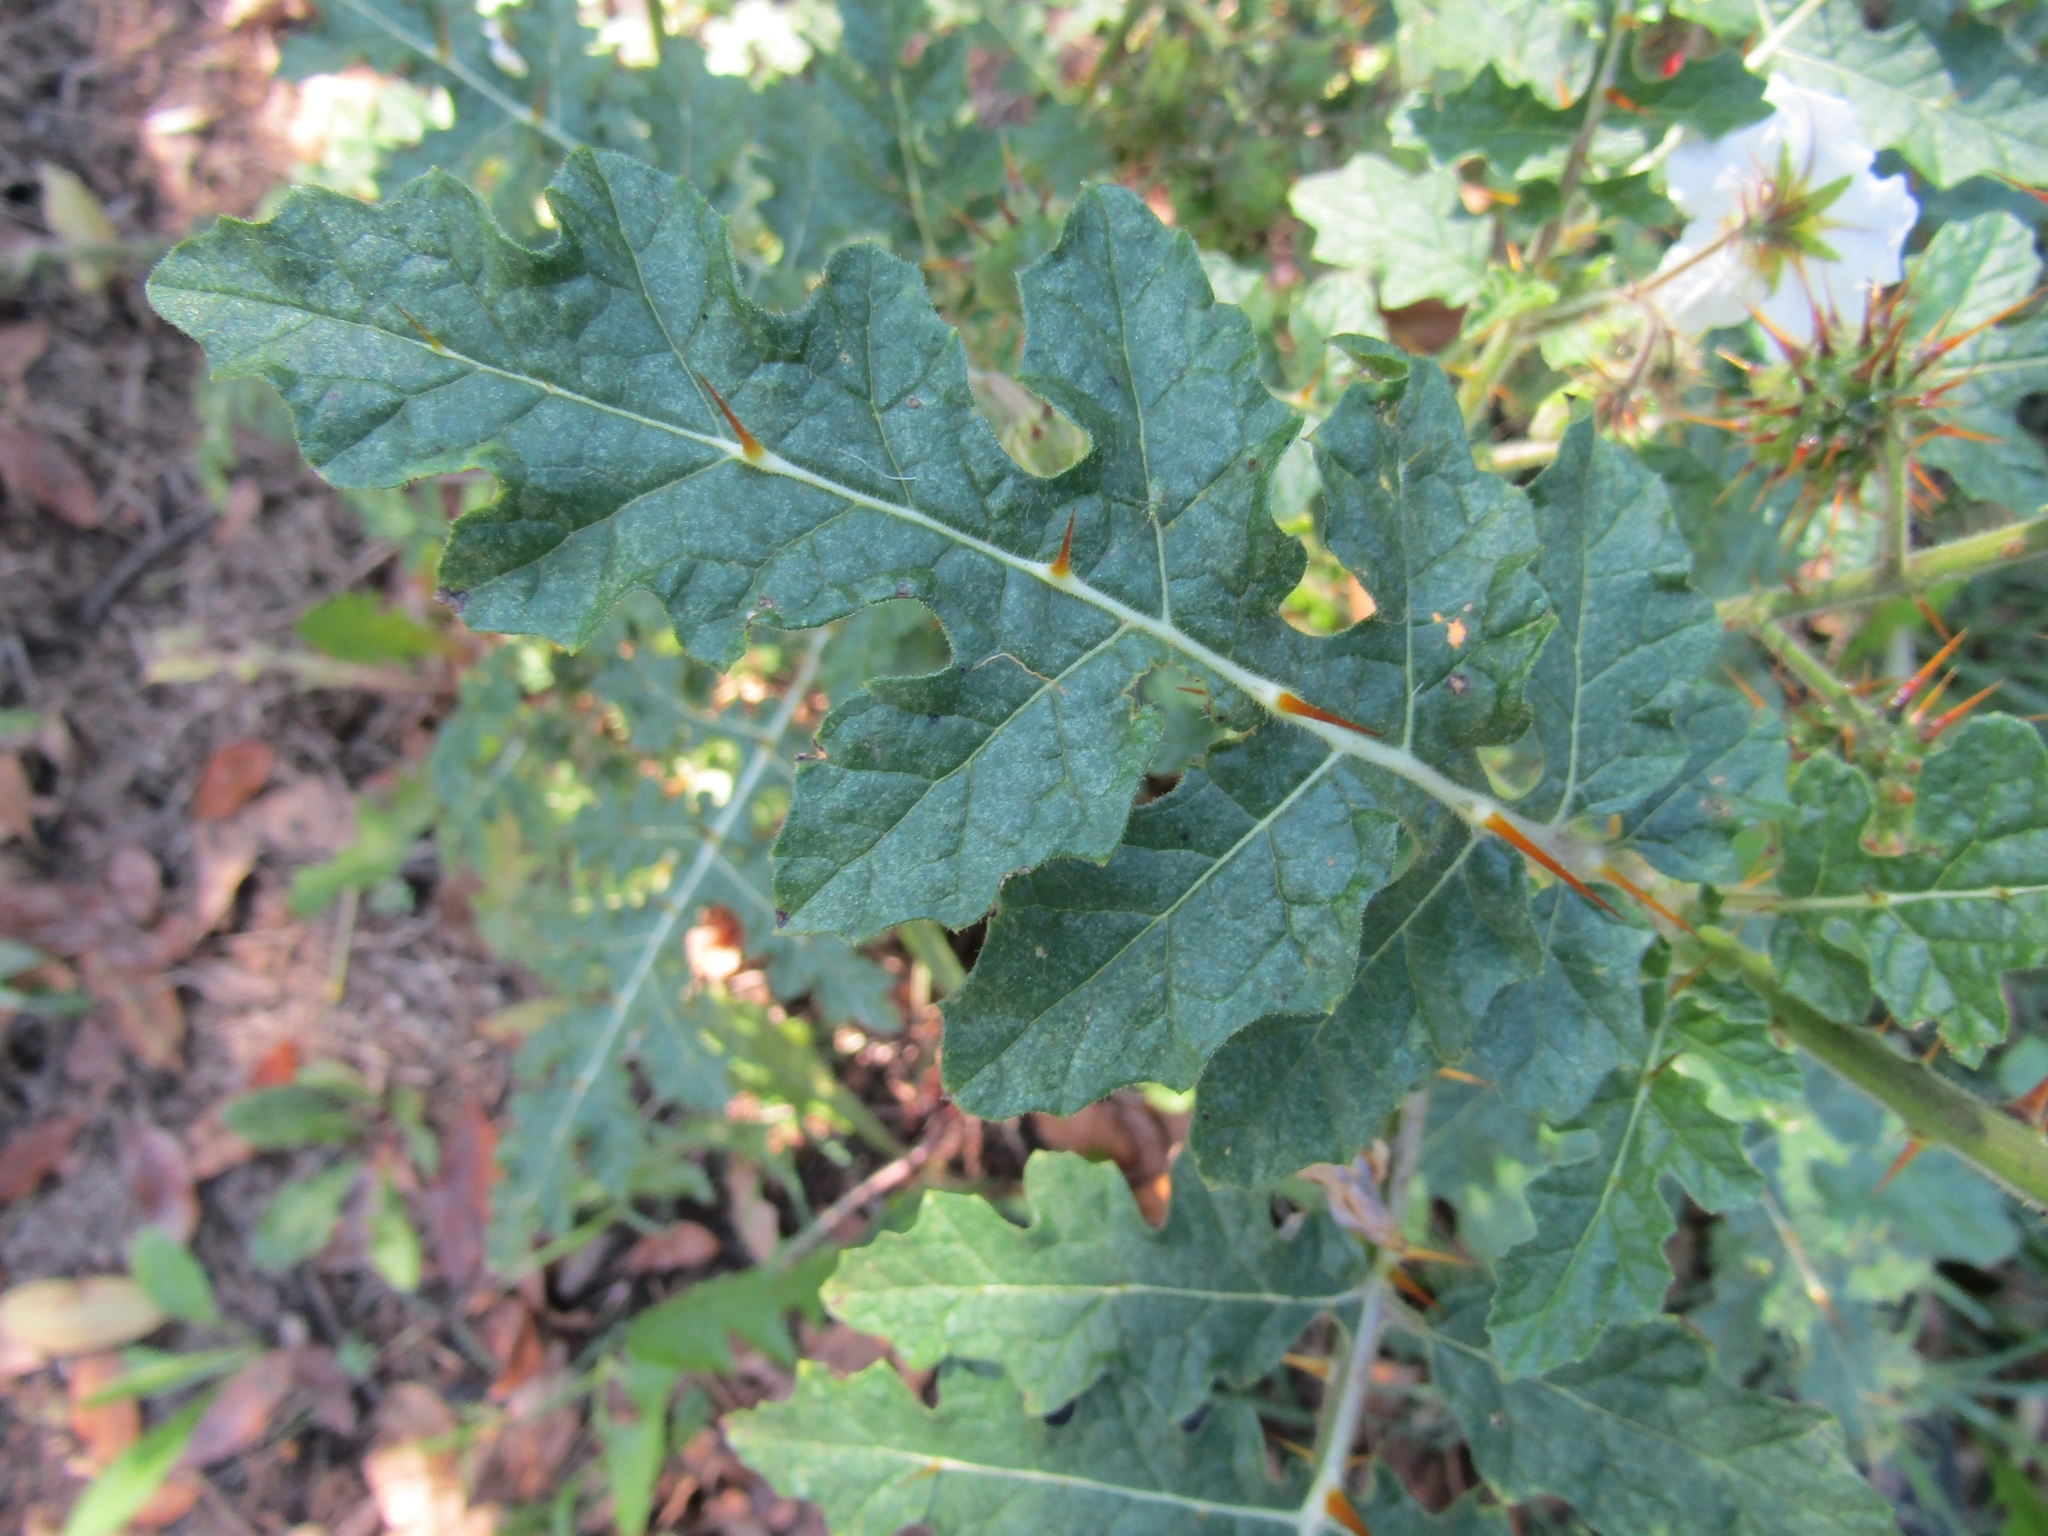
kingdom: Plantae
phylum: Tracheophyta
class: Magnoliopsida
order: Solanales
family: Solanaceae
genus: Solanum
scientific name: Solanum sisymbriifolium
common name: Red buffalo-bur
